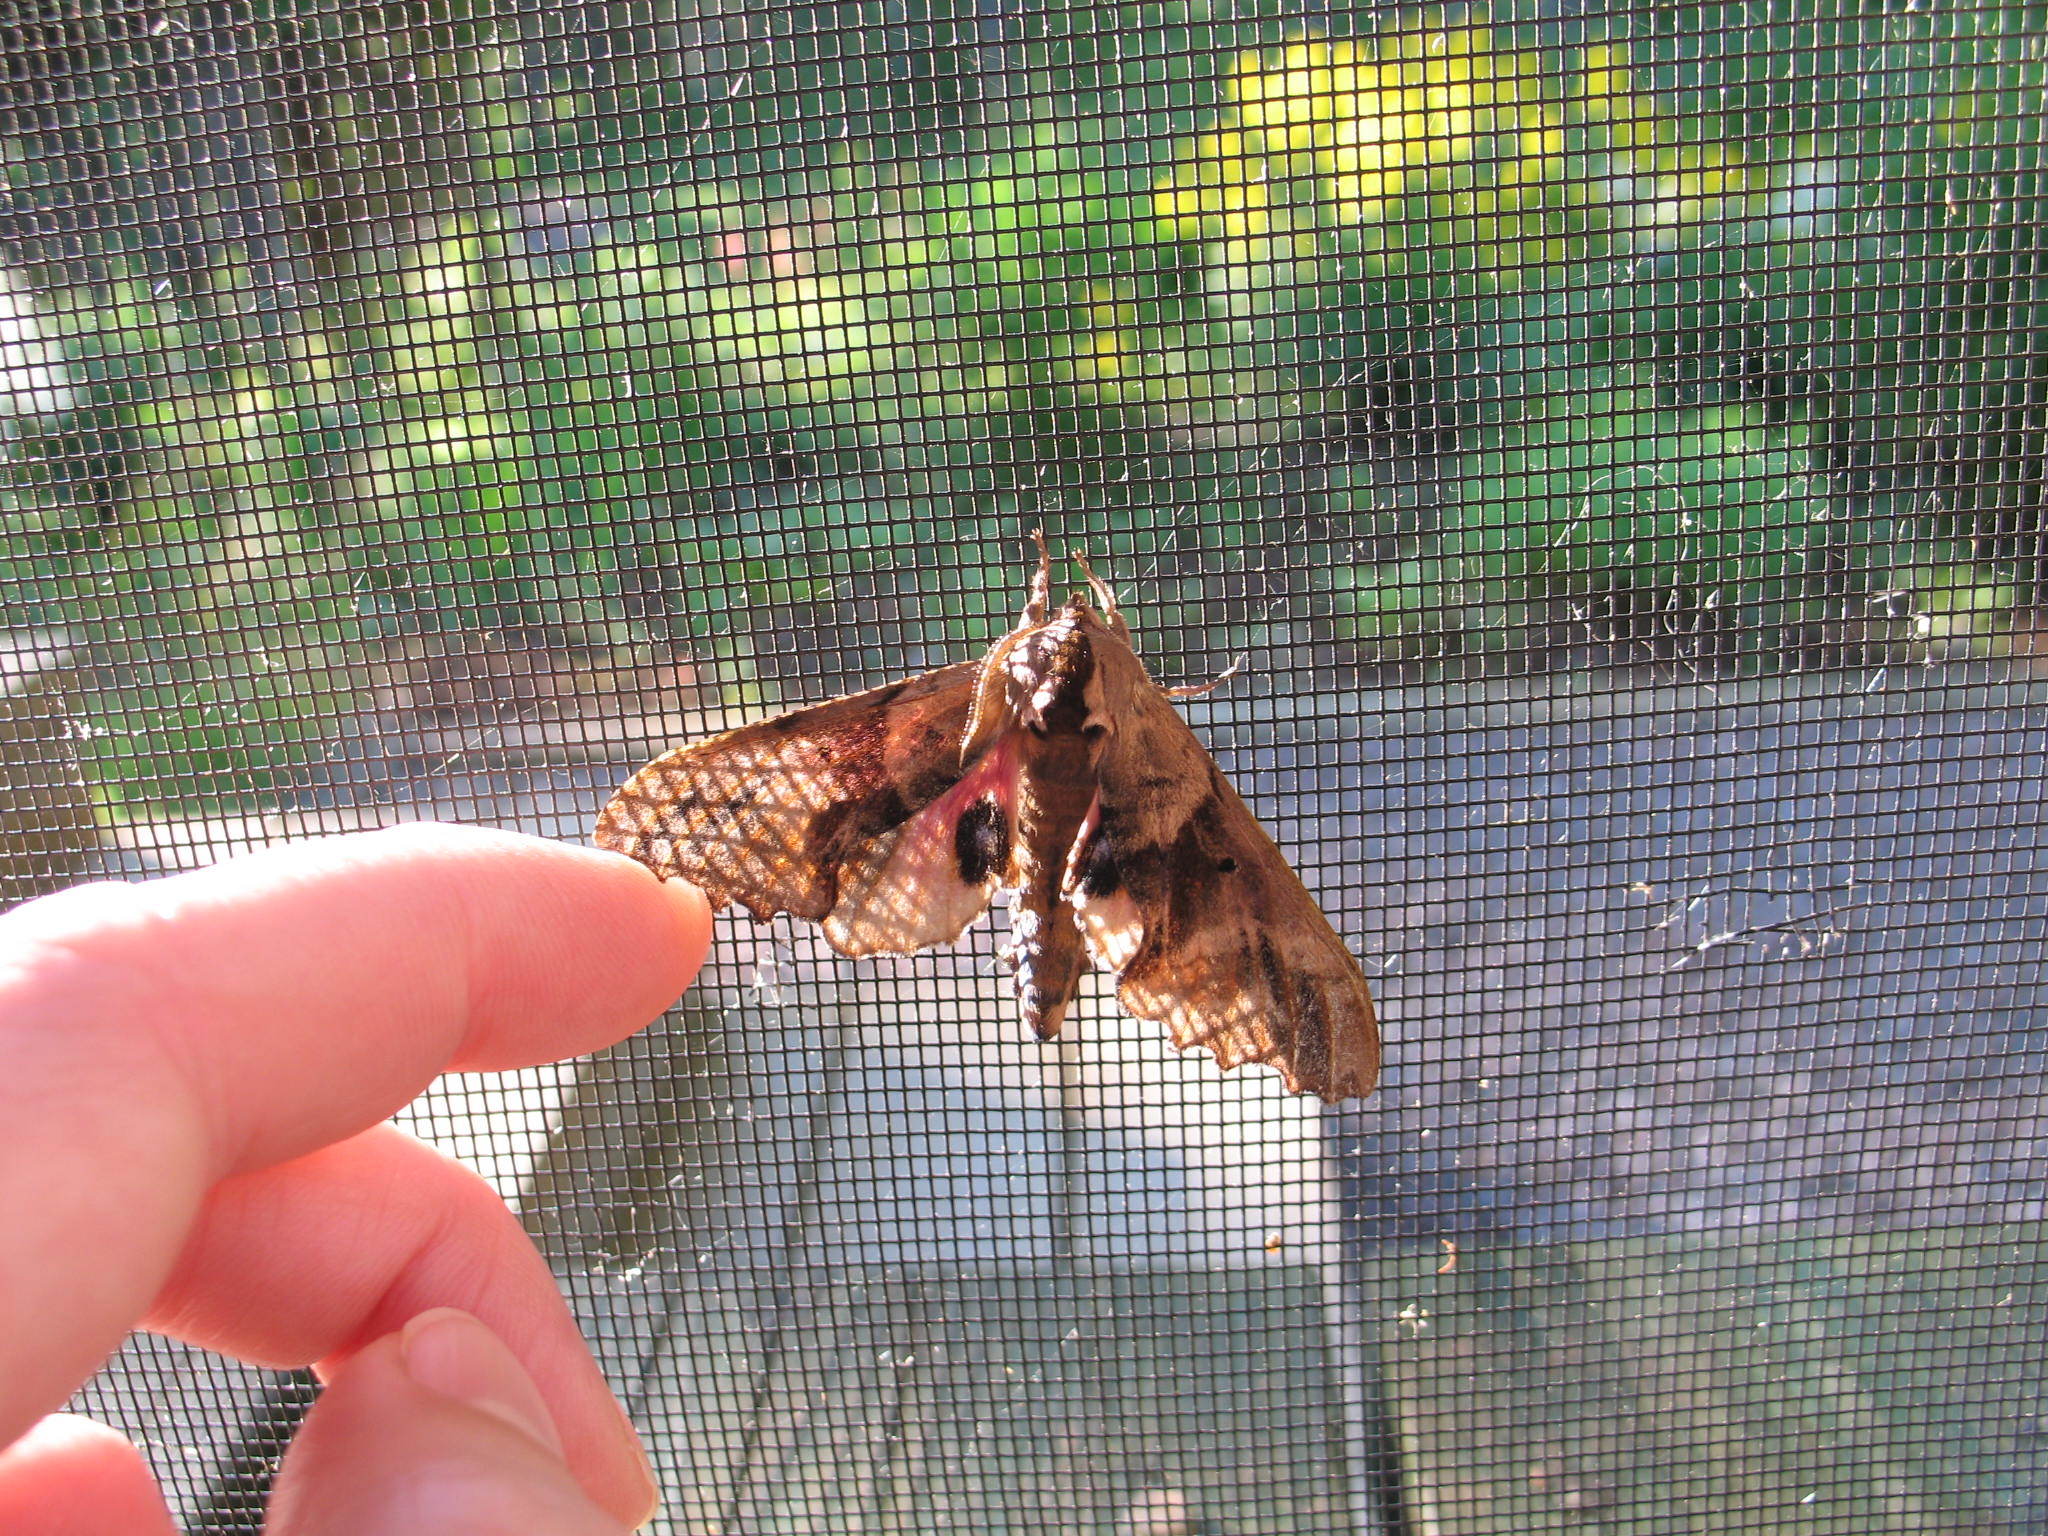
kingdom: Animalia
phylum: Arthropoda
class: Insecta
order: Lepidoptera
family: Sphingidae
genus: Paonias
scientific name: Paonias excaecata
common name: Blind-eyed sphinx
